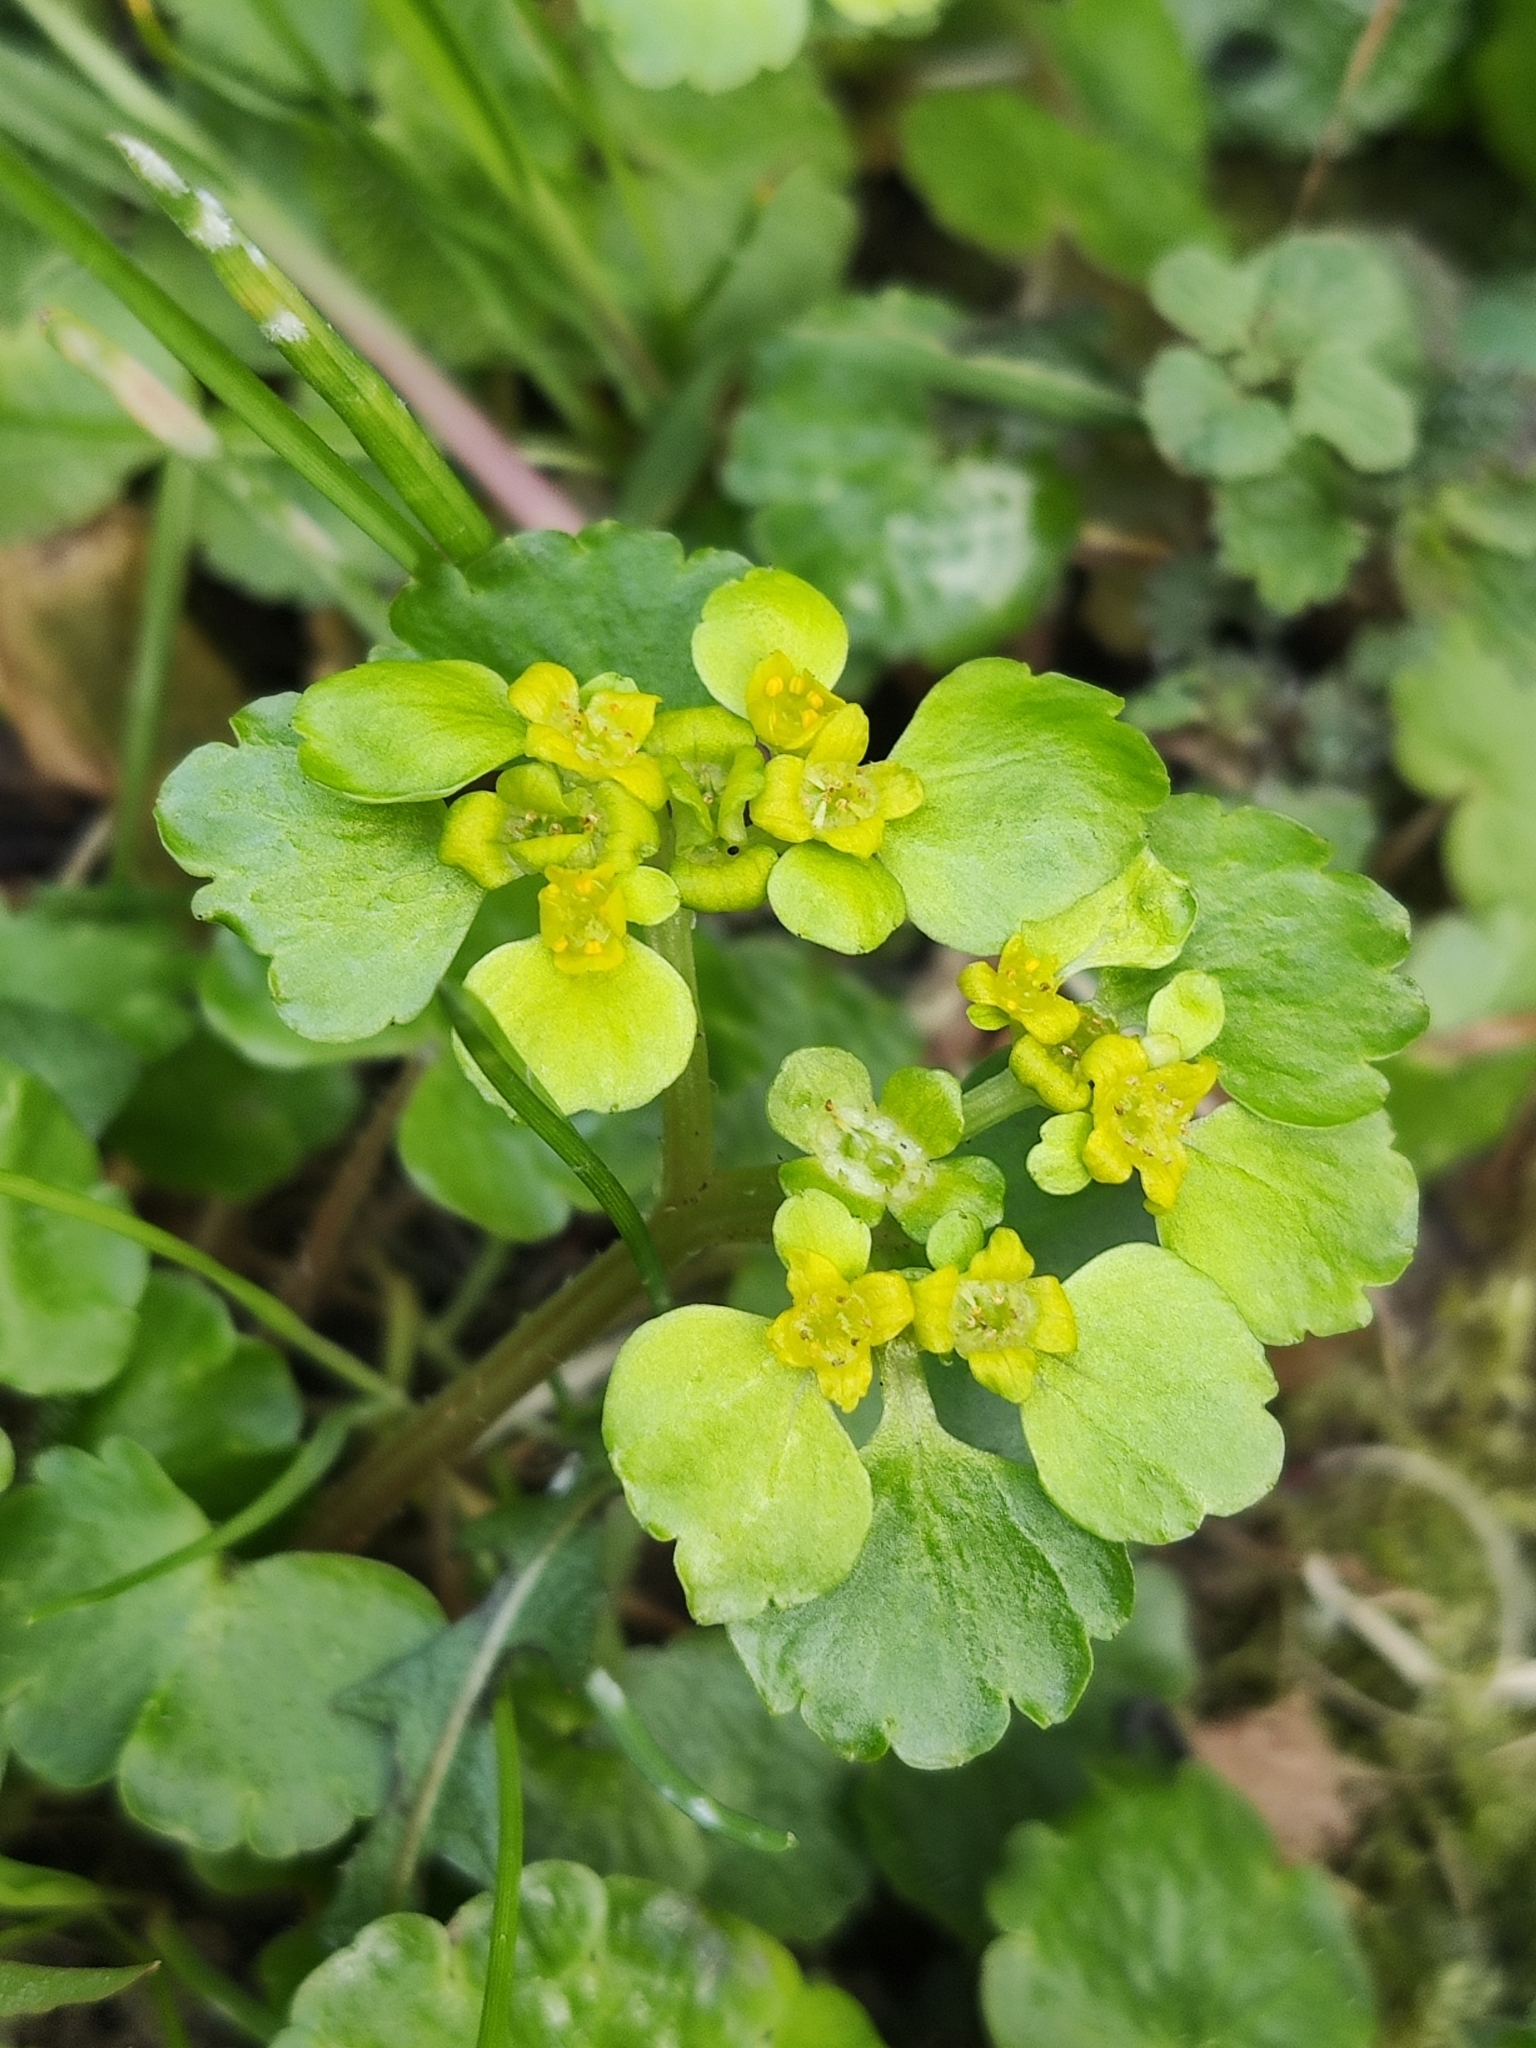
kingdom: Plantae
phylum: Tracheophyta
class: Magnoliopsida
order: Saxifragales
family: Saxifragaceae
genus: Chrysosplenium
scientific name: Chrysosplenium alternifolium
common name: Alternate-leaved golden-saxifrage
